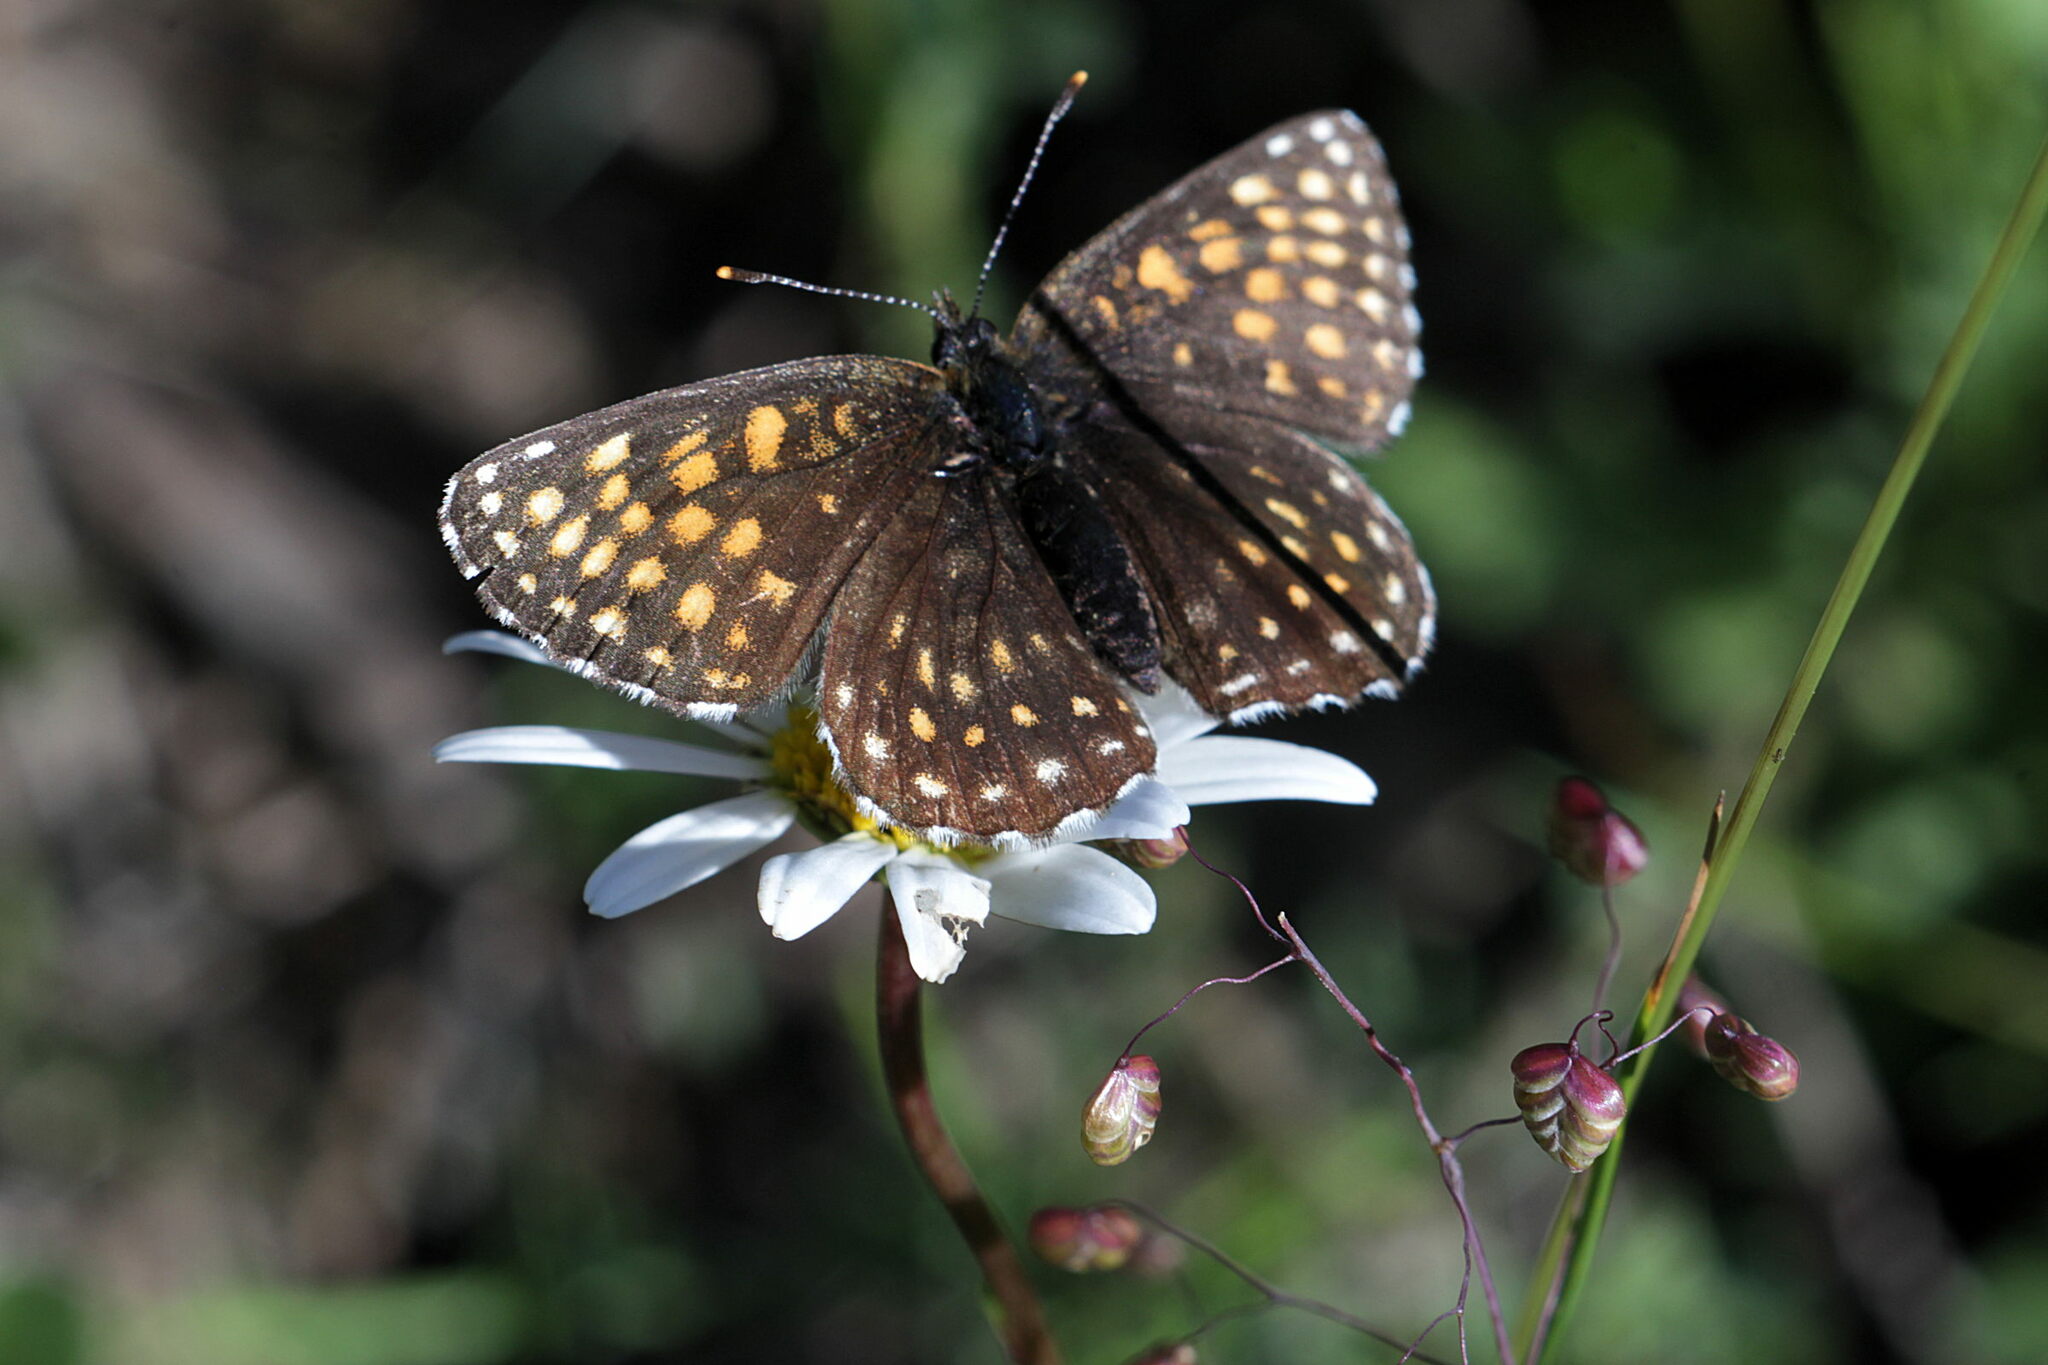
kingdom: Animalia
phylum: Arthropoda
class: Insecta
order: Lepidoptera
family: Nymphalidae
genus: Melitaea
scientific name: Melitaea diamina
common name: False heath fritillary
